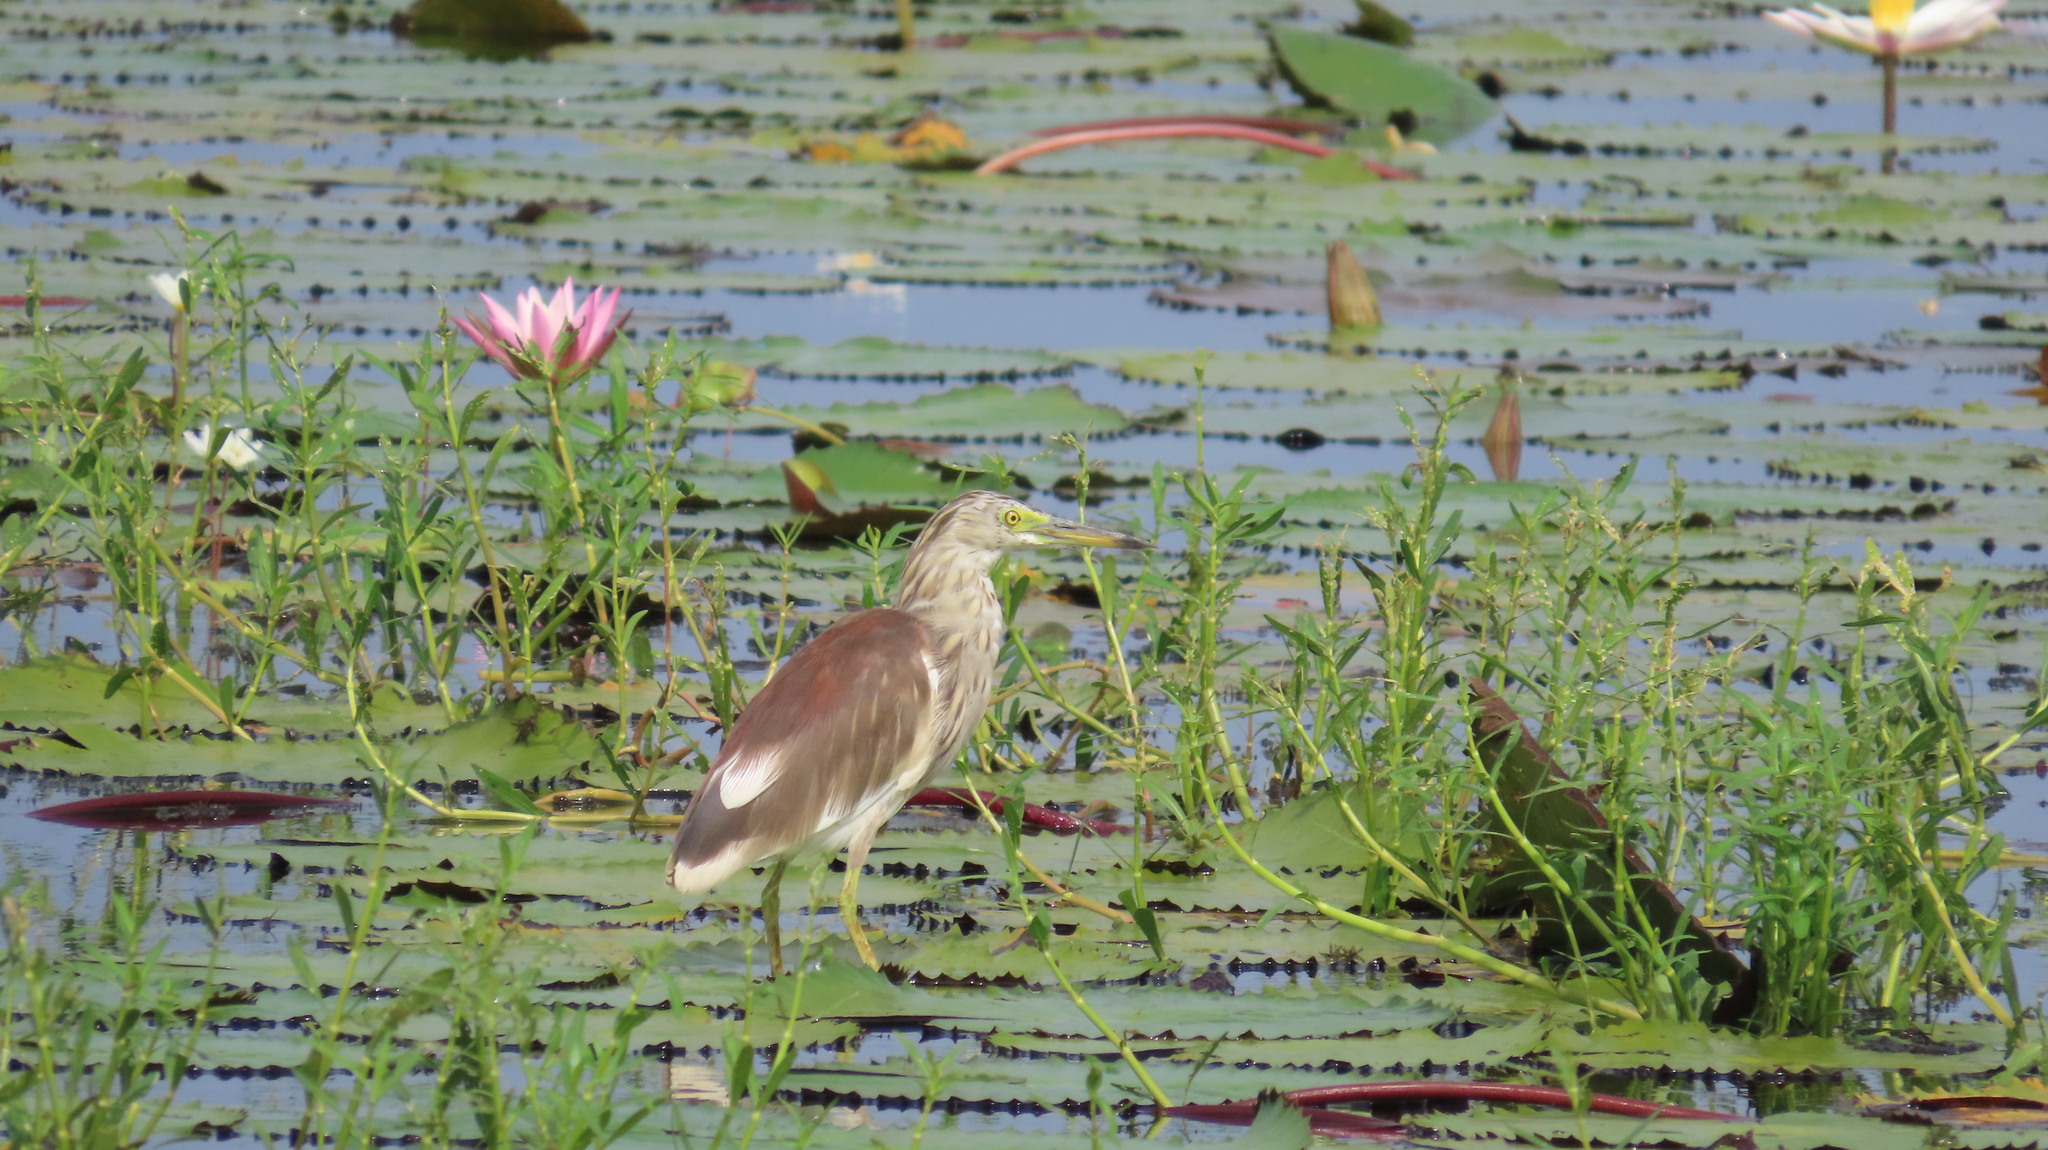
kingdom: Animalia
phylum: Chordata
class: Aves
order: Pelecaniformes
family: Ardeidae
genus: Ardeola
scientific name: Ardeola grayii
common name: Indian pond heron
